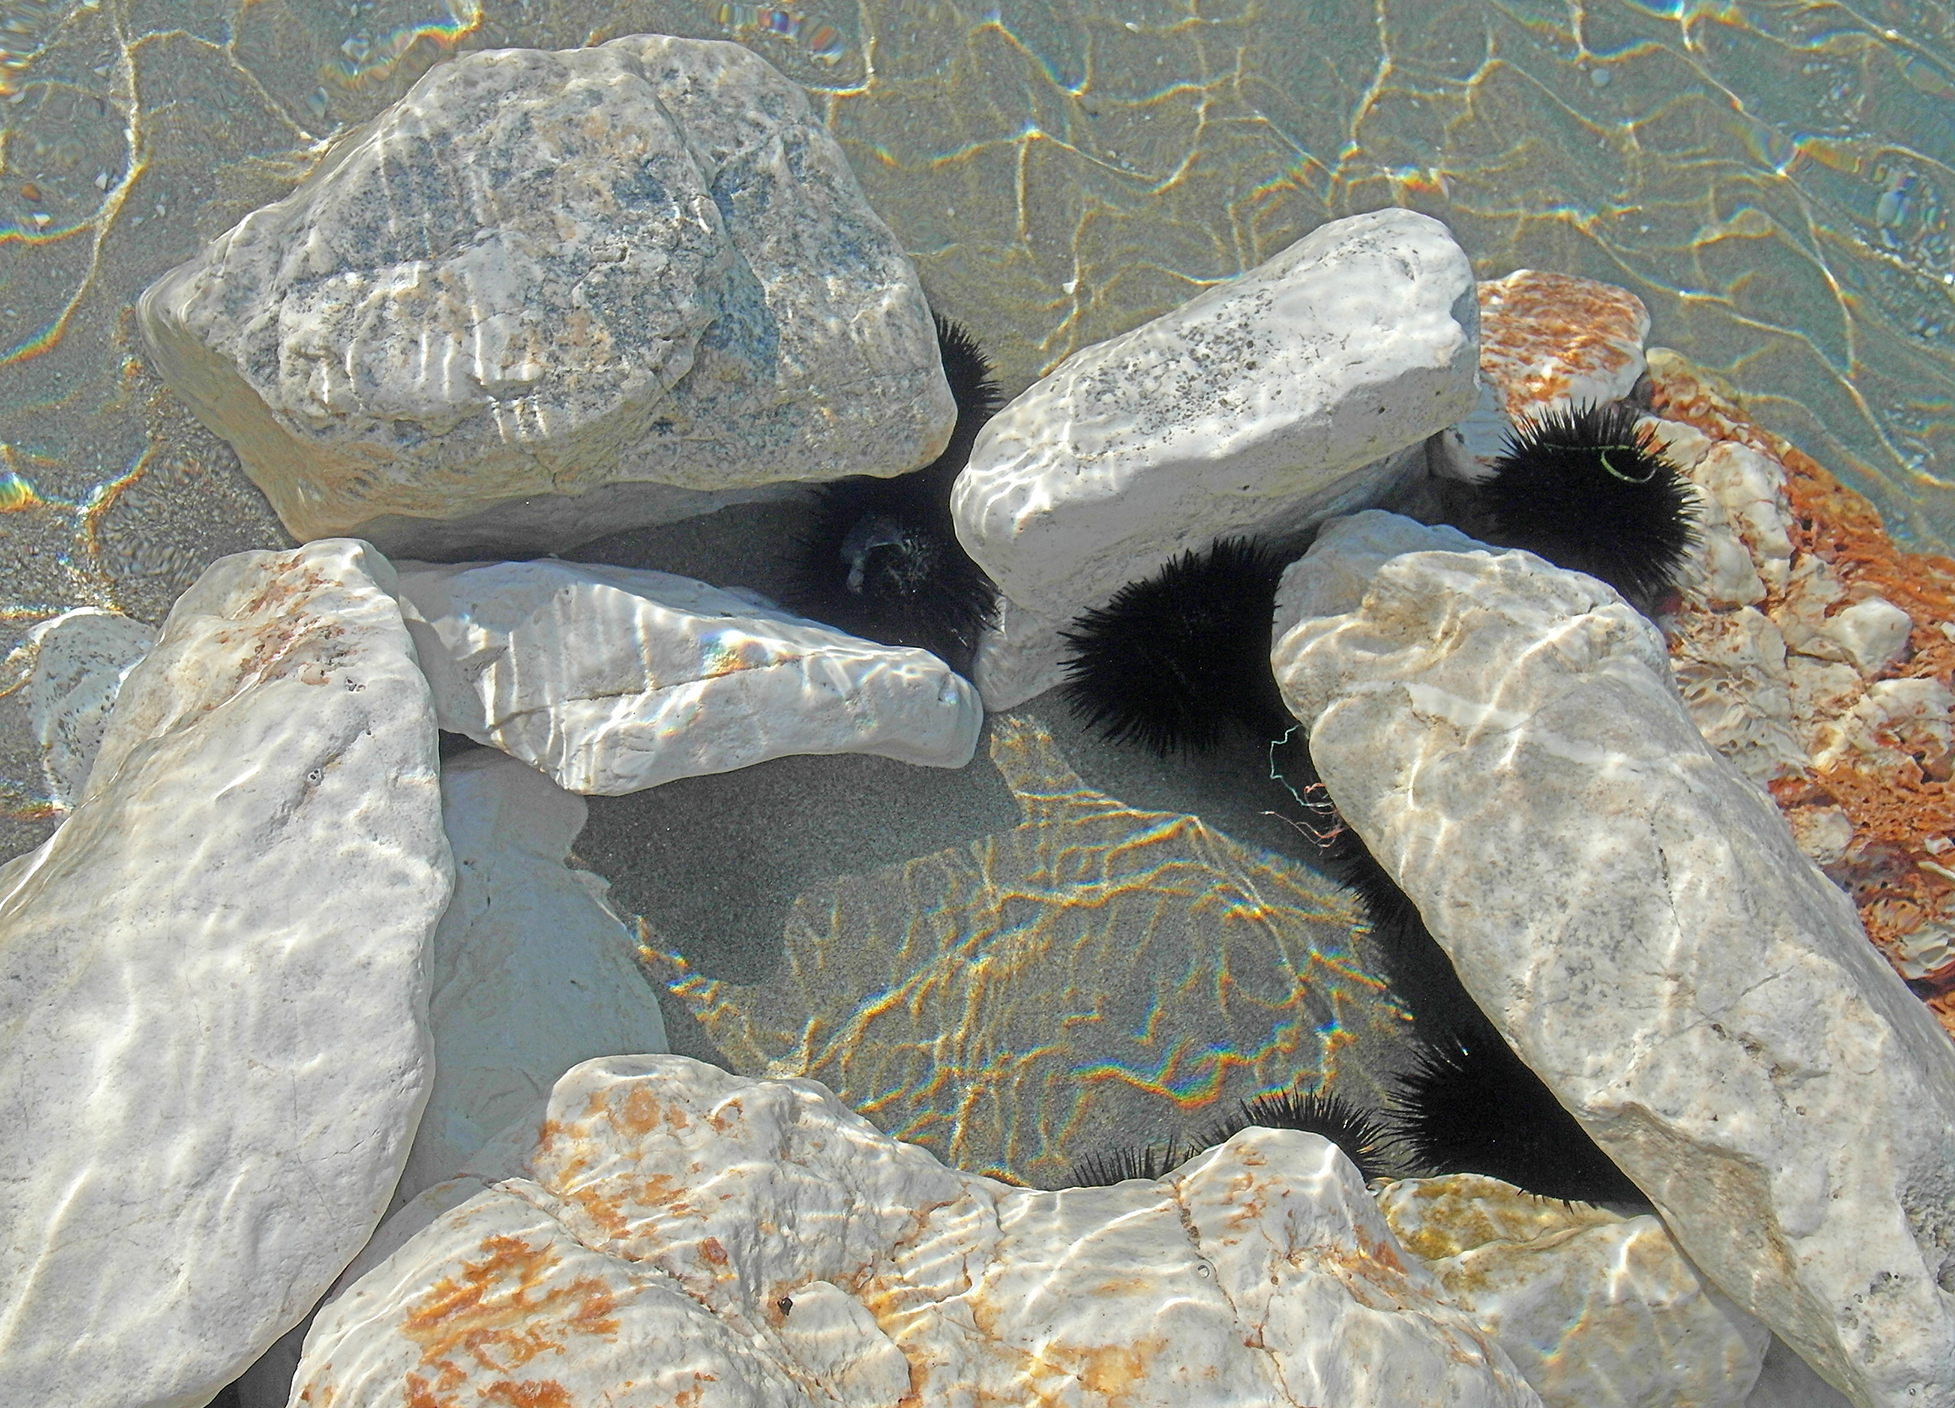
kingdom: Animalia
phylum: Echinodermata
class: Echinoidea
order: Arbacioida
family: Arbaciidae
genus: Arbacia
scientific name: Arbacia lixula
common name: Black sea urchin
